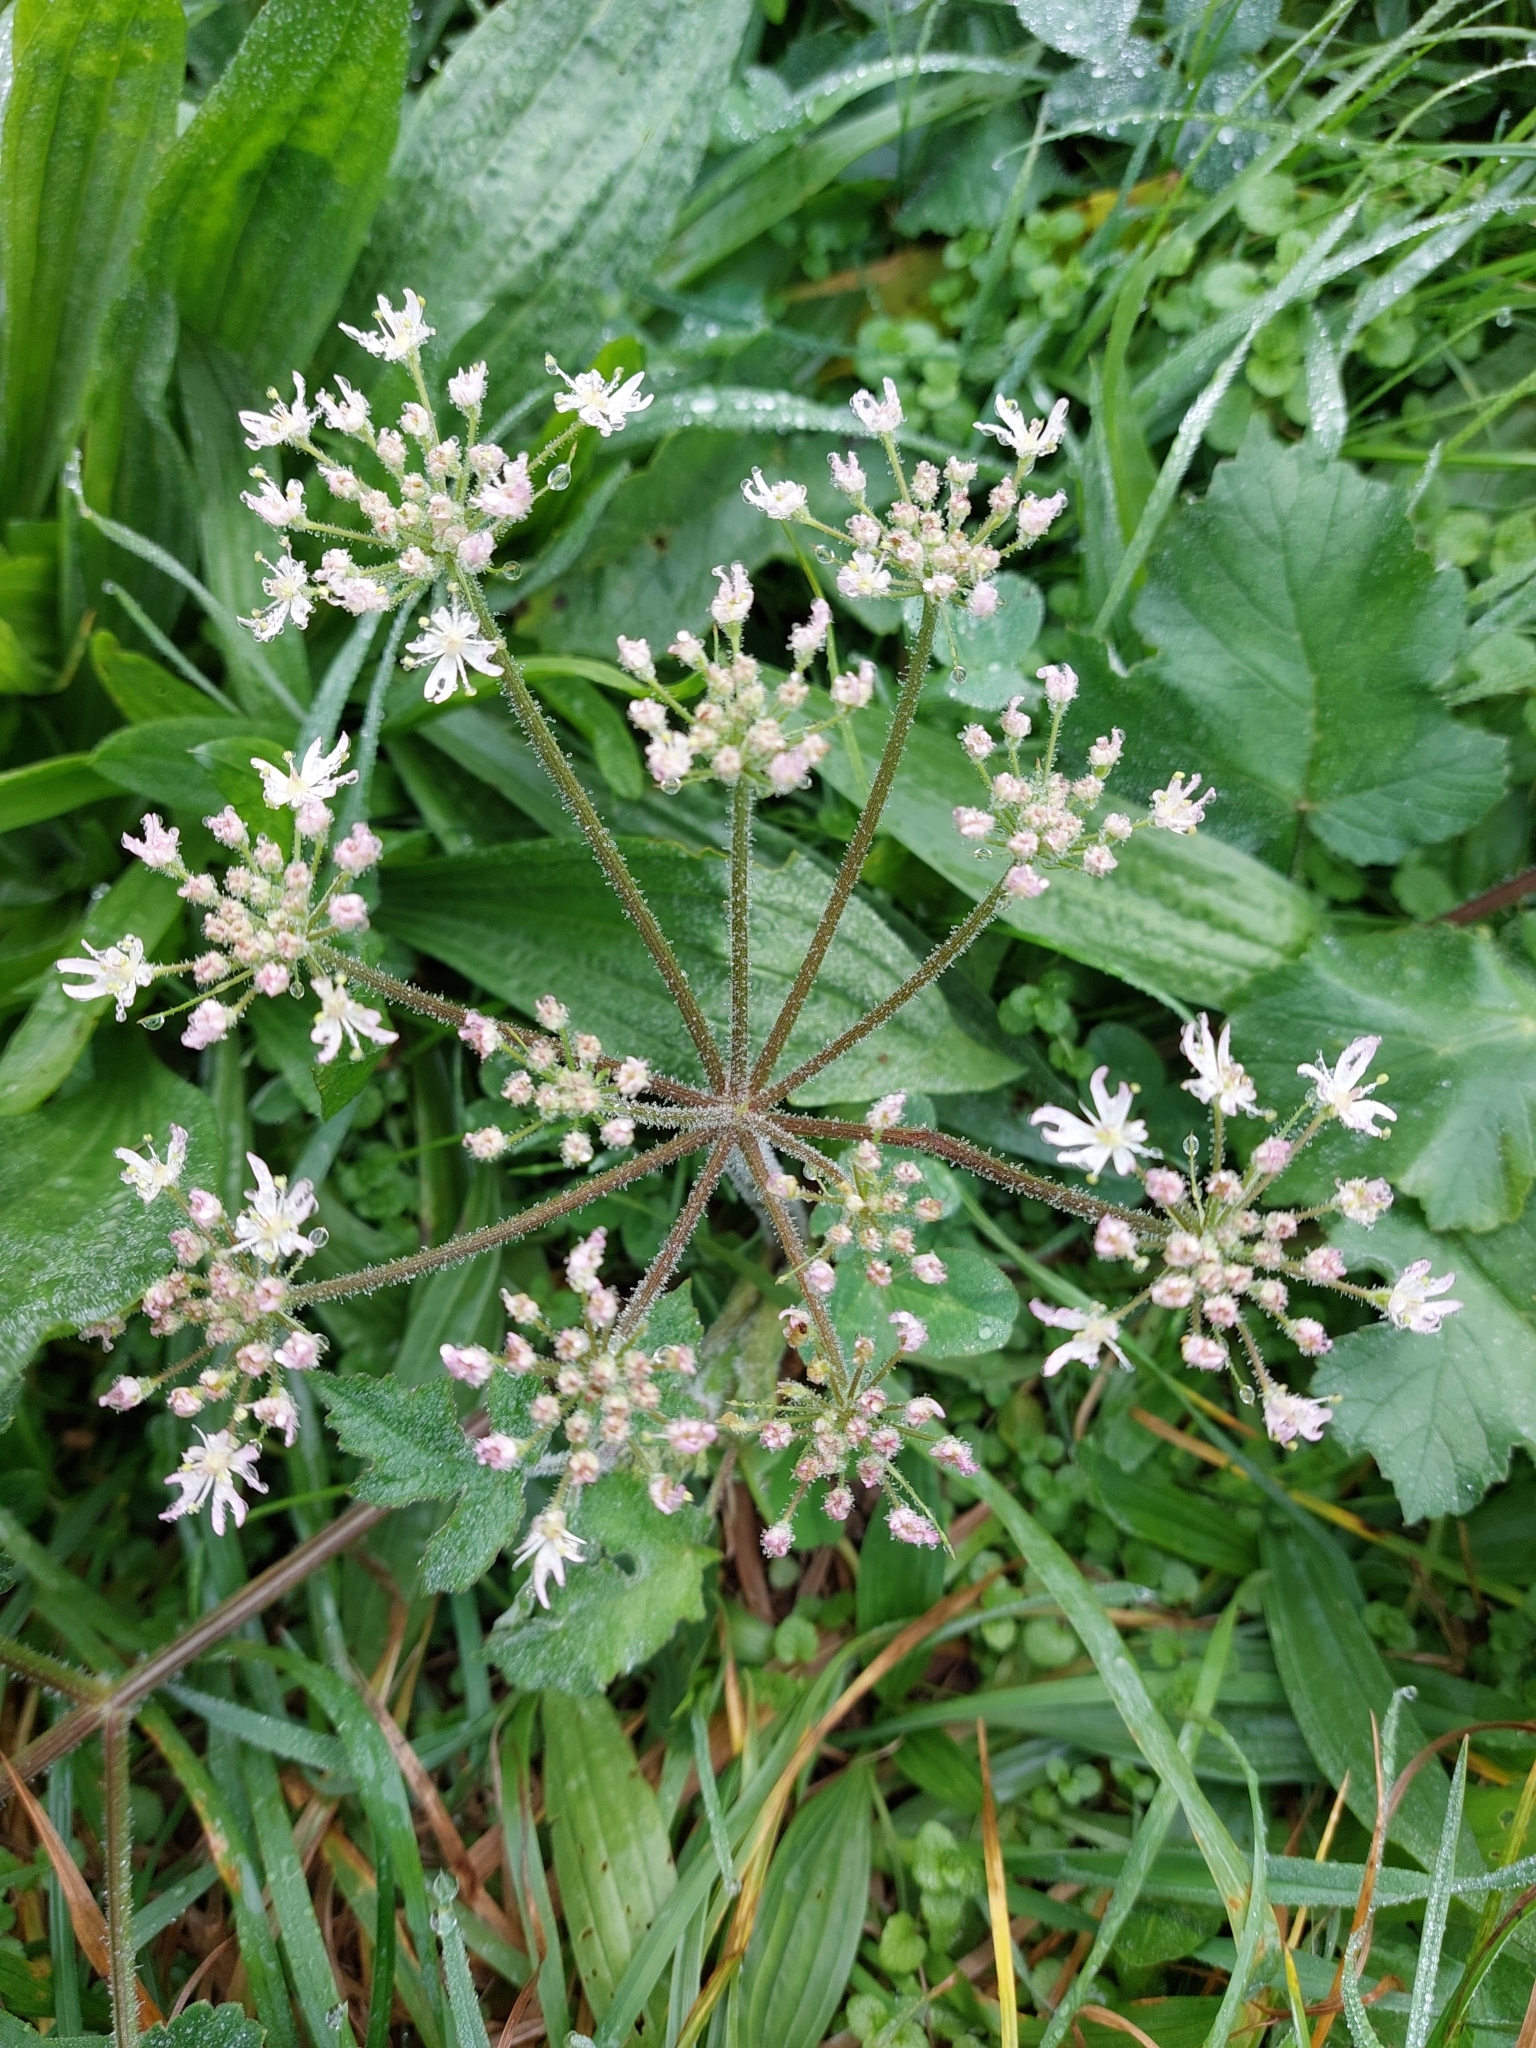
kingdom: Plantae
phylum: Tracheophyta
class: Magnoliopsida
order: Apiales
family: Apiaceae
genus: Heracleum
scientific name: Heracleum sphondylium
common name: Hogweed
